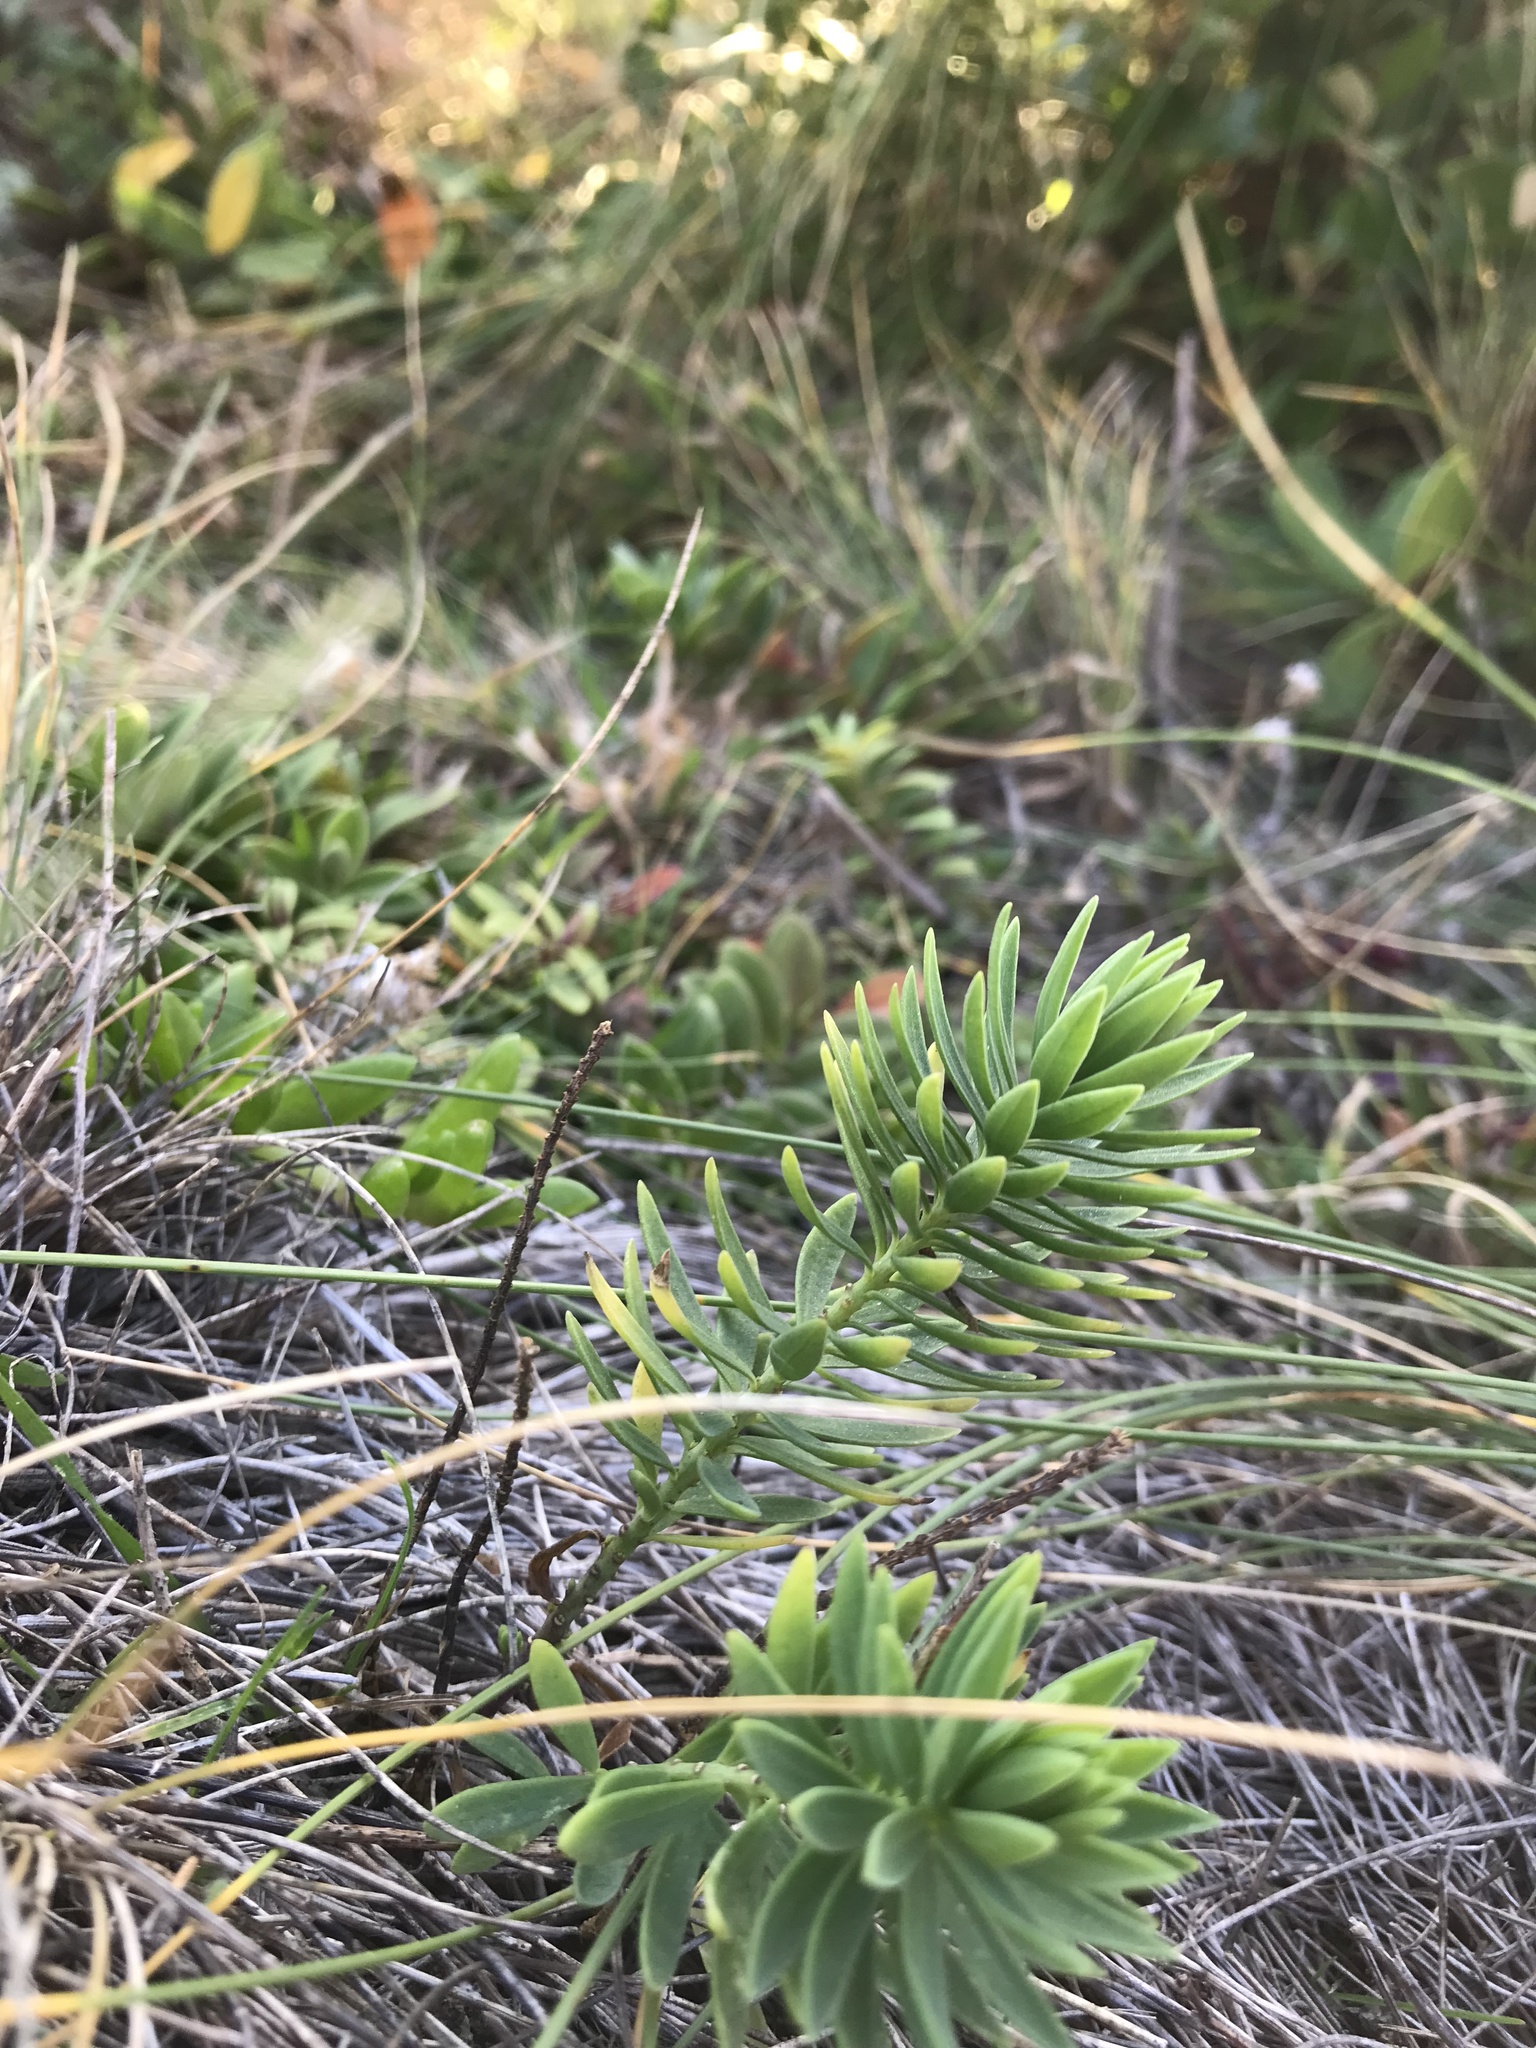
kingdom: Plantae
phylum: Tracheophyta
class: Magnoliopsida
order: Malpighiales
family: Linaceae
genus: Linum
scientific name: Linum monogynum
